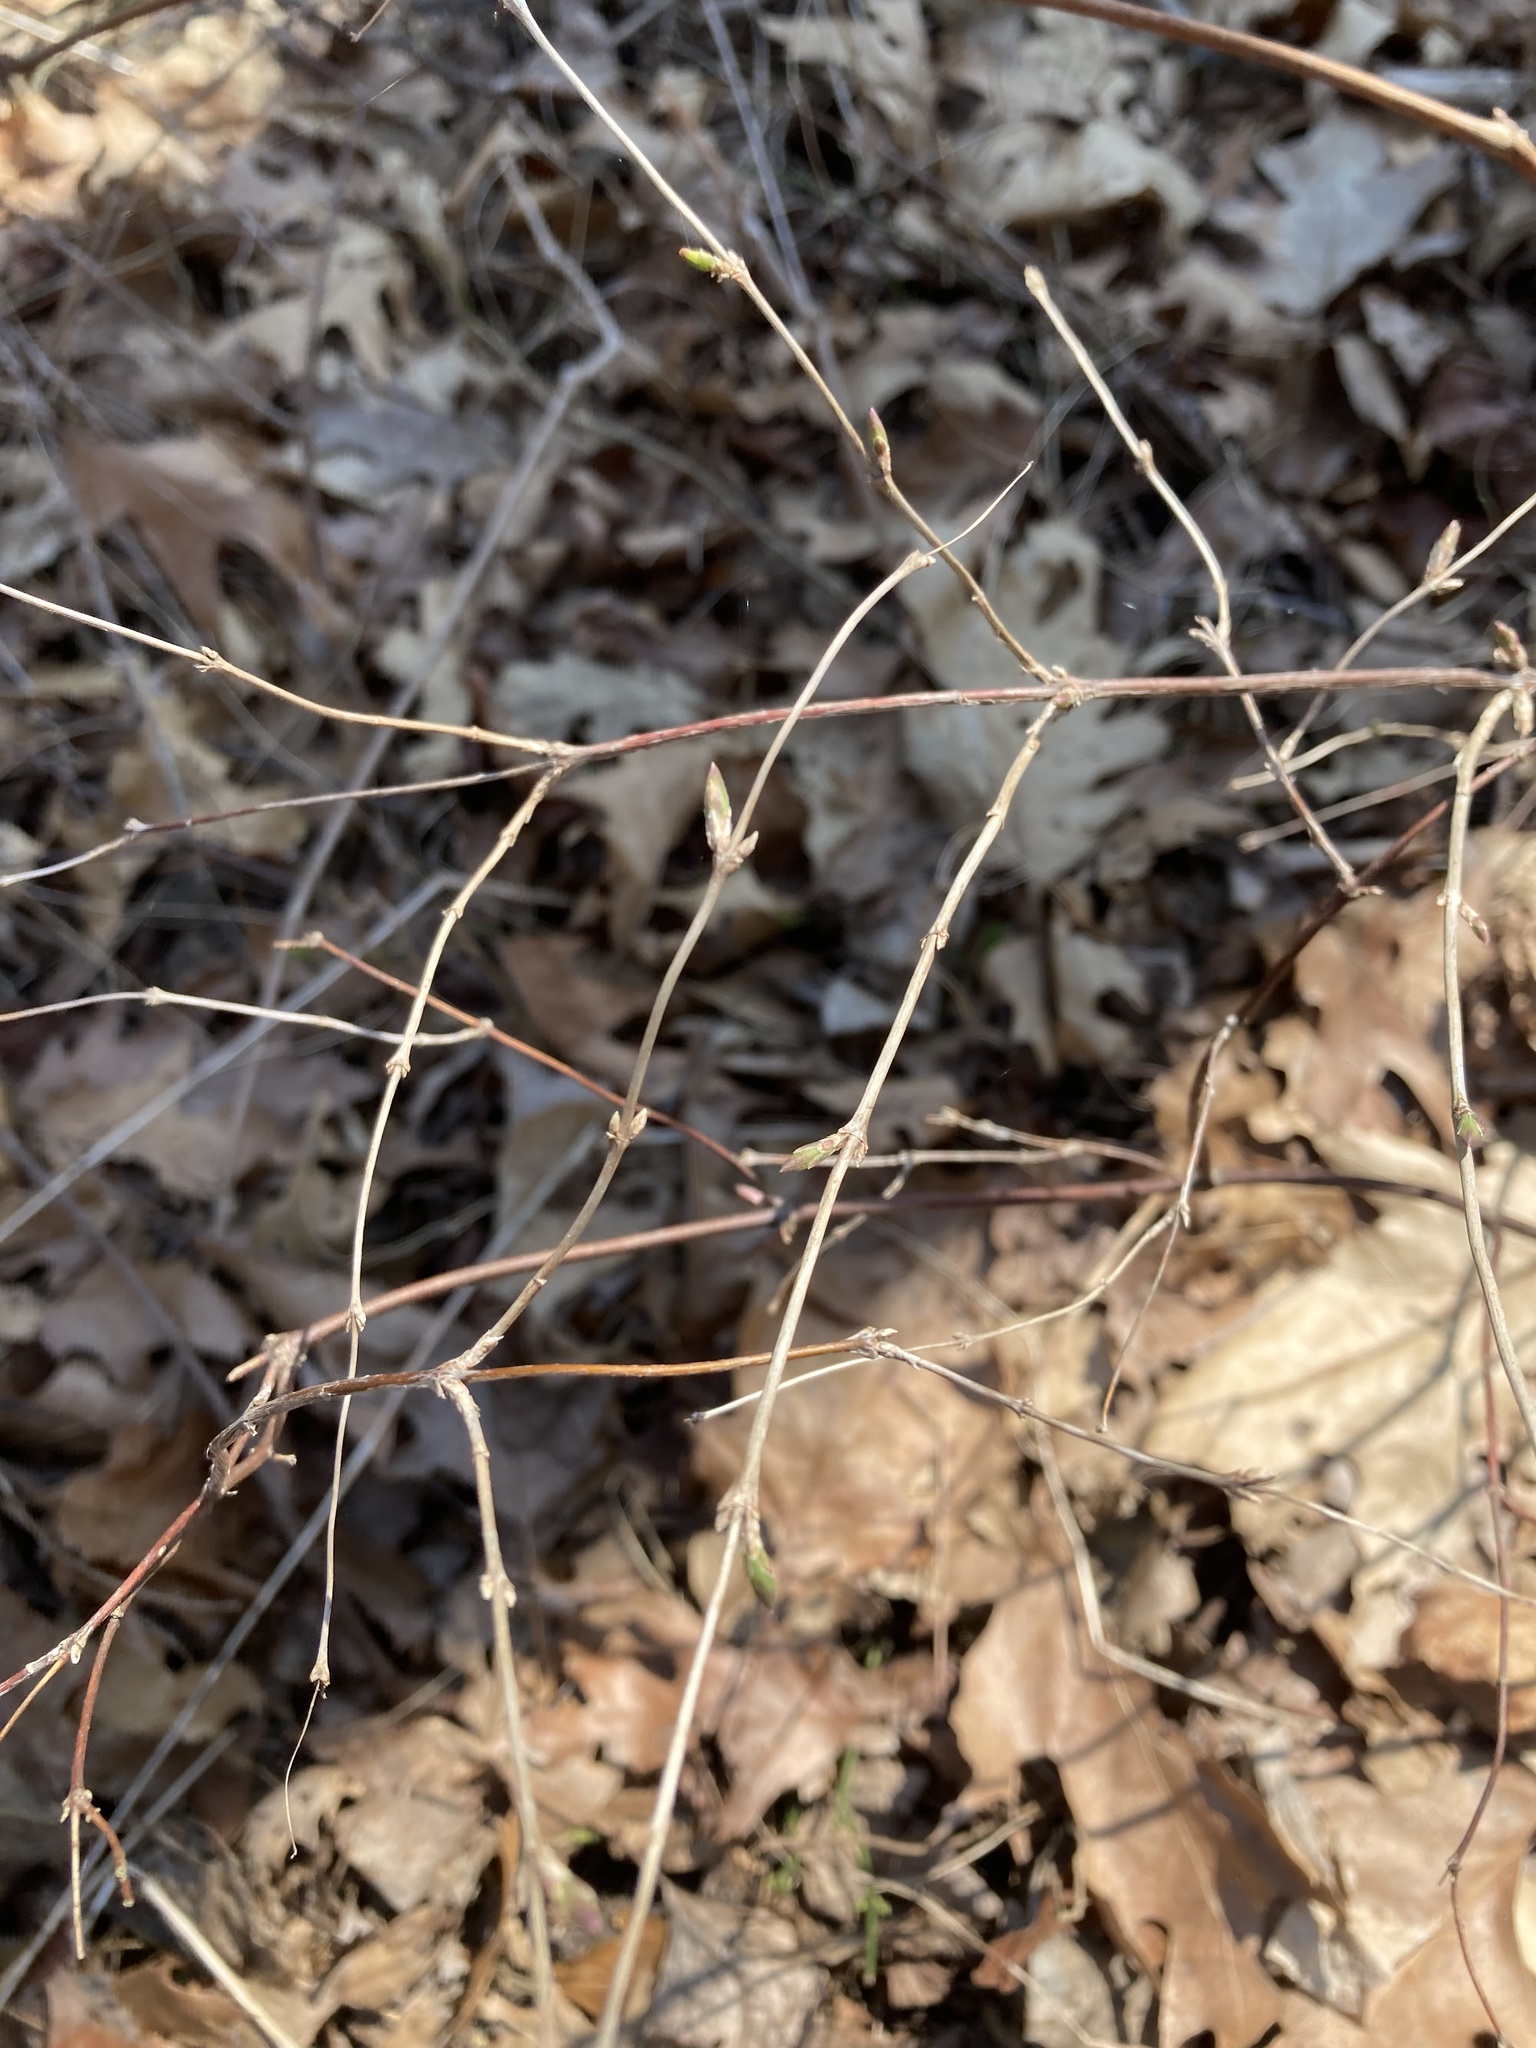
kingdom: Plantae
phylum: Tracheophyta
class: Magnoliopsida
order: Dipsacales
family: Caprifoliaceae
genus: Symphoricarpos
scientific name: Symphoricarpos albus
